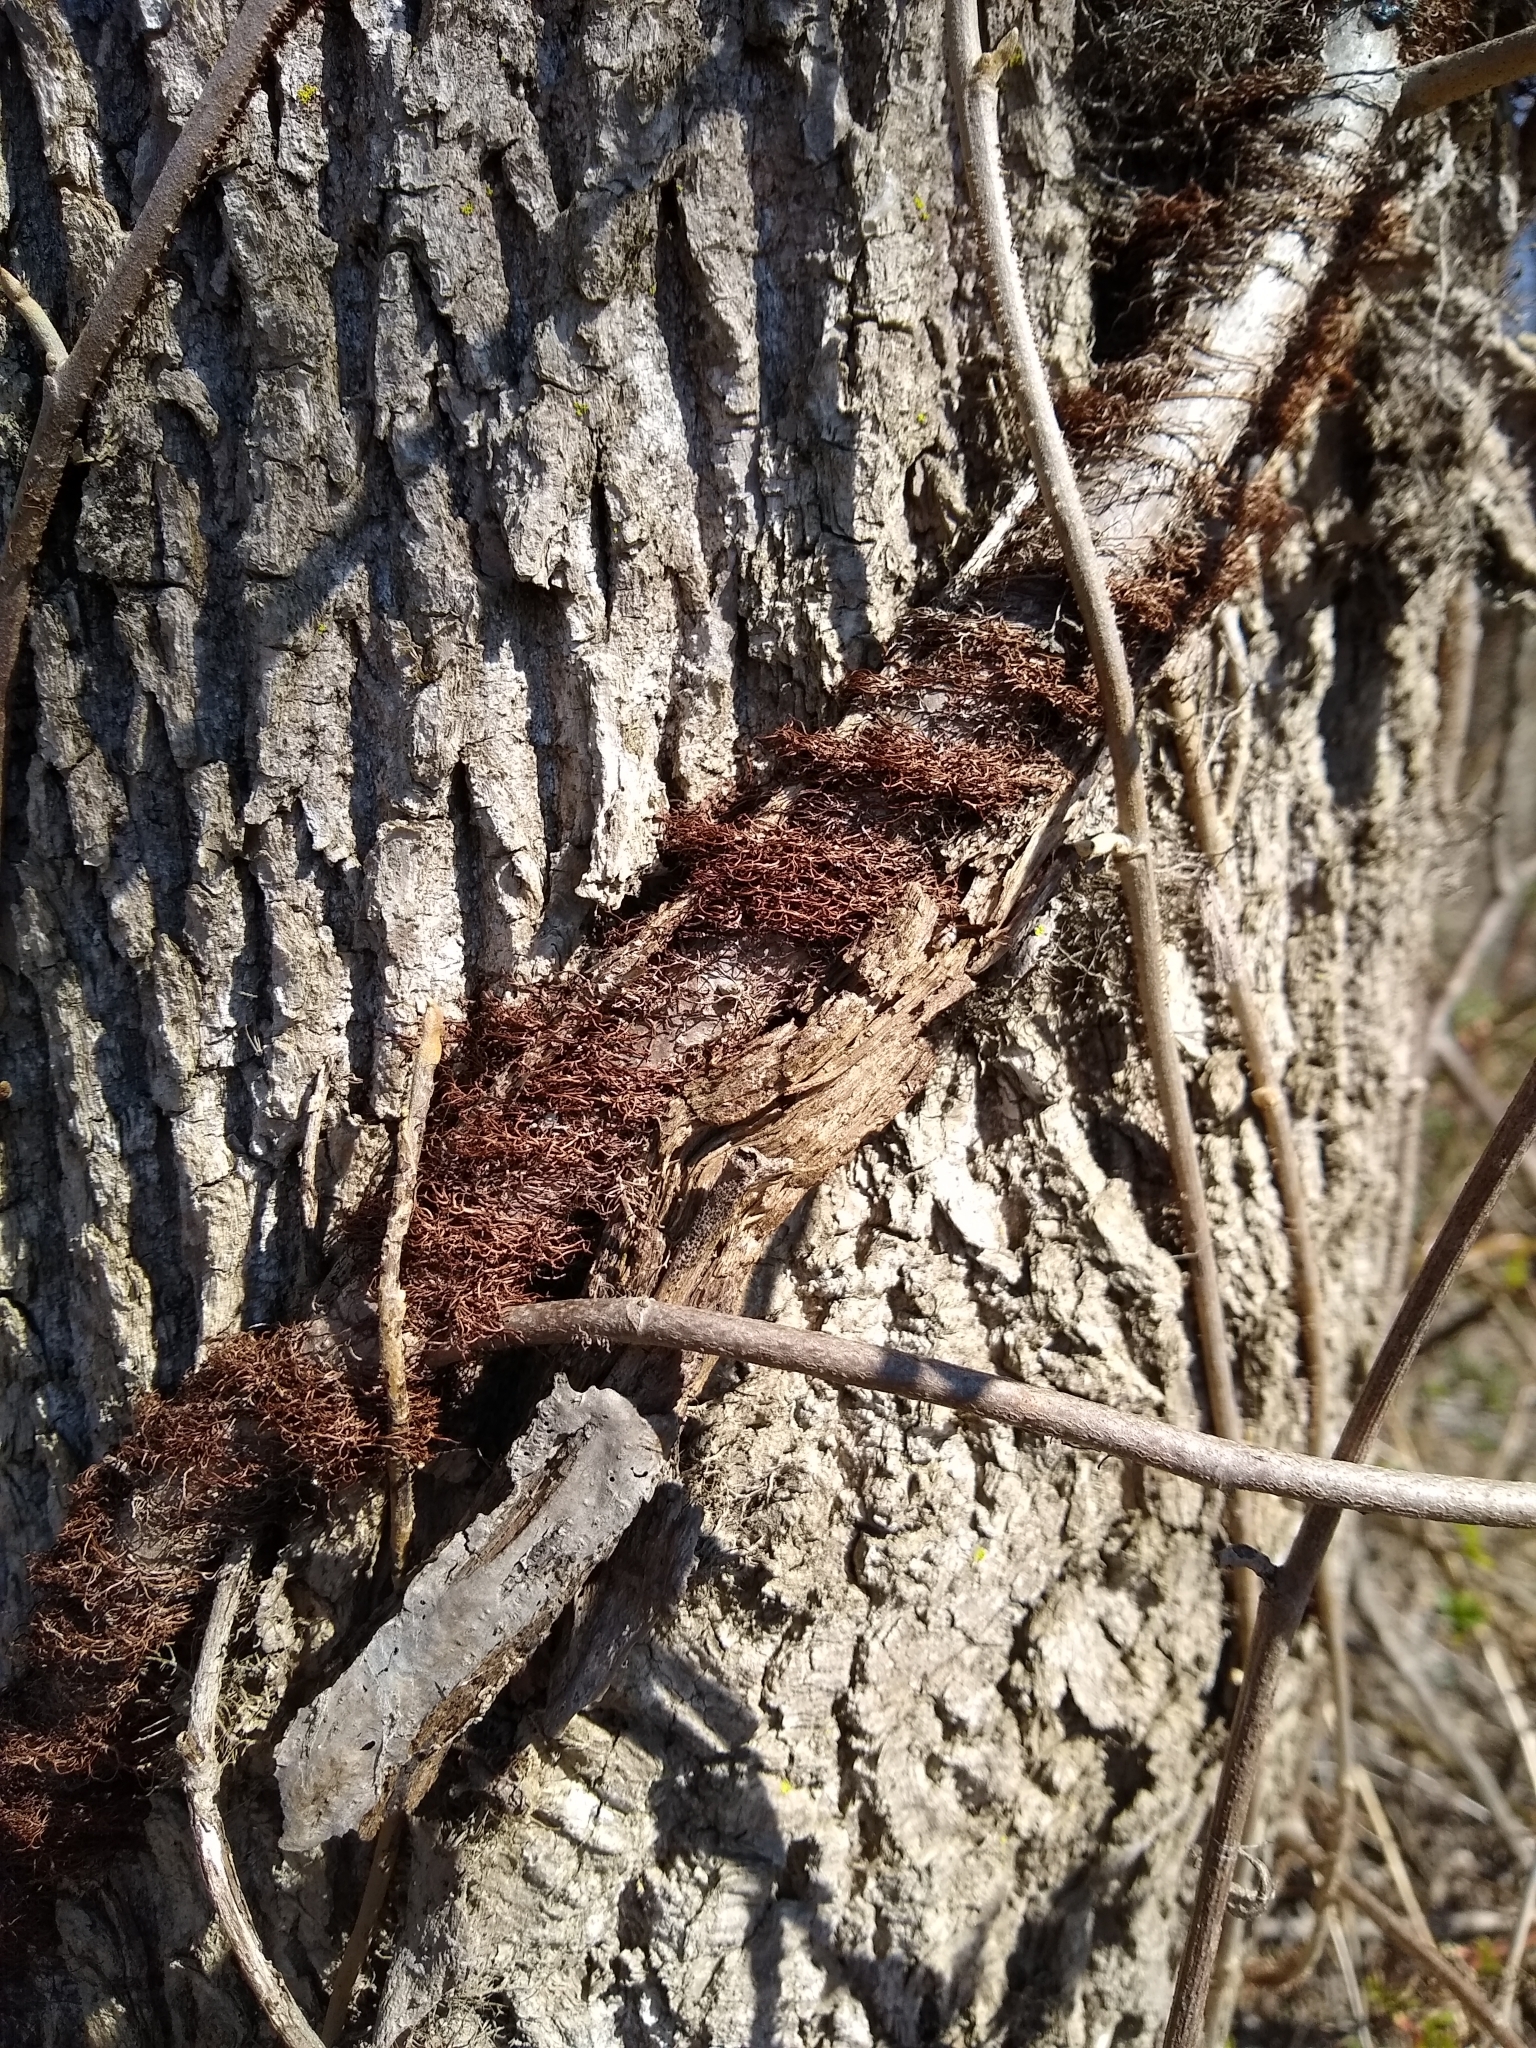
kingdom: Plantae
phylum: Tracheophyta
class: Magnoliopsida
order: Sapindales
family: Anacardiaceae
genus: Toxicodendron
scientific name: Toxicodendron radicans
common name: Poison ivy
